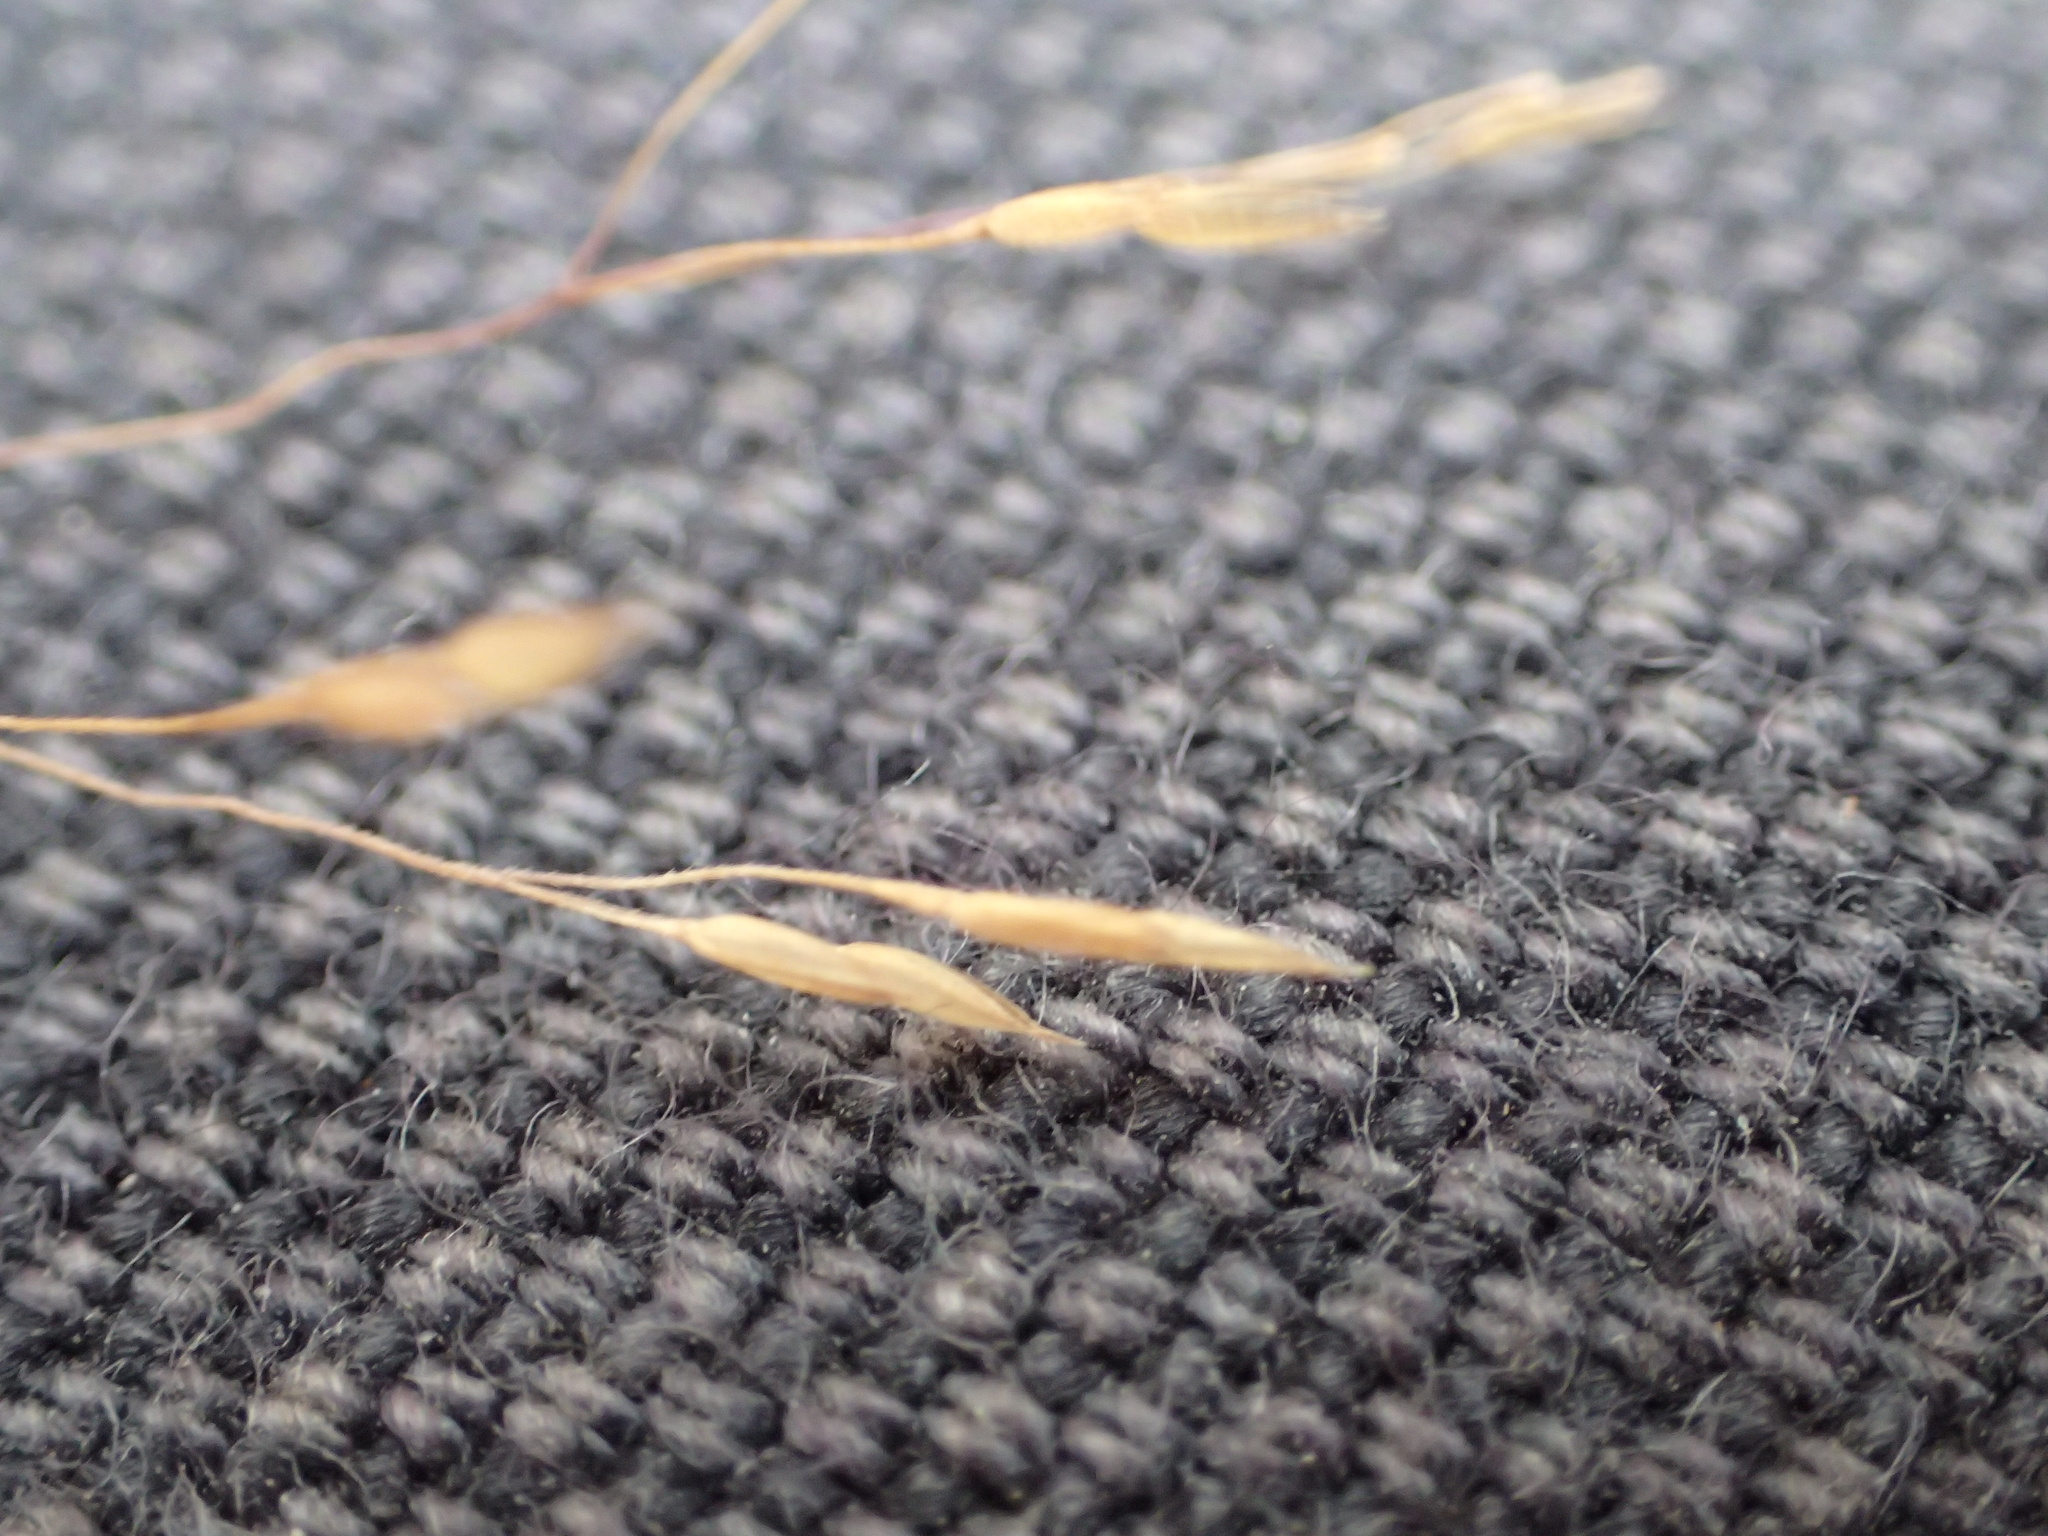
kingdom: Plantae
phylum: Tracheophyta
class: Liliopsida
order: Poales
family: Poaceae
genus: Agrostis
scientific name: Agrostis scabra
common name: Rough bent
